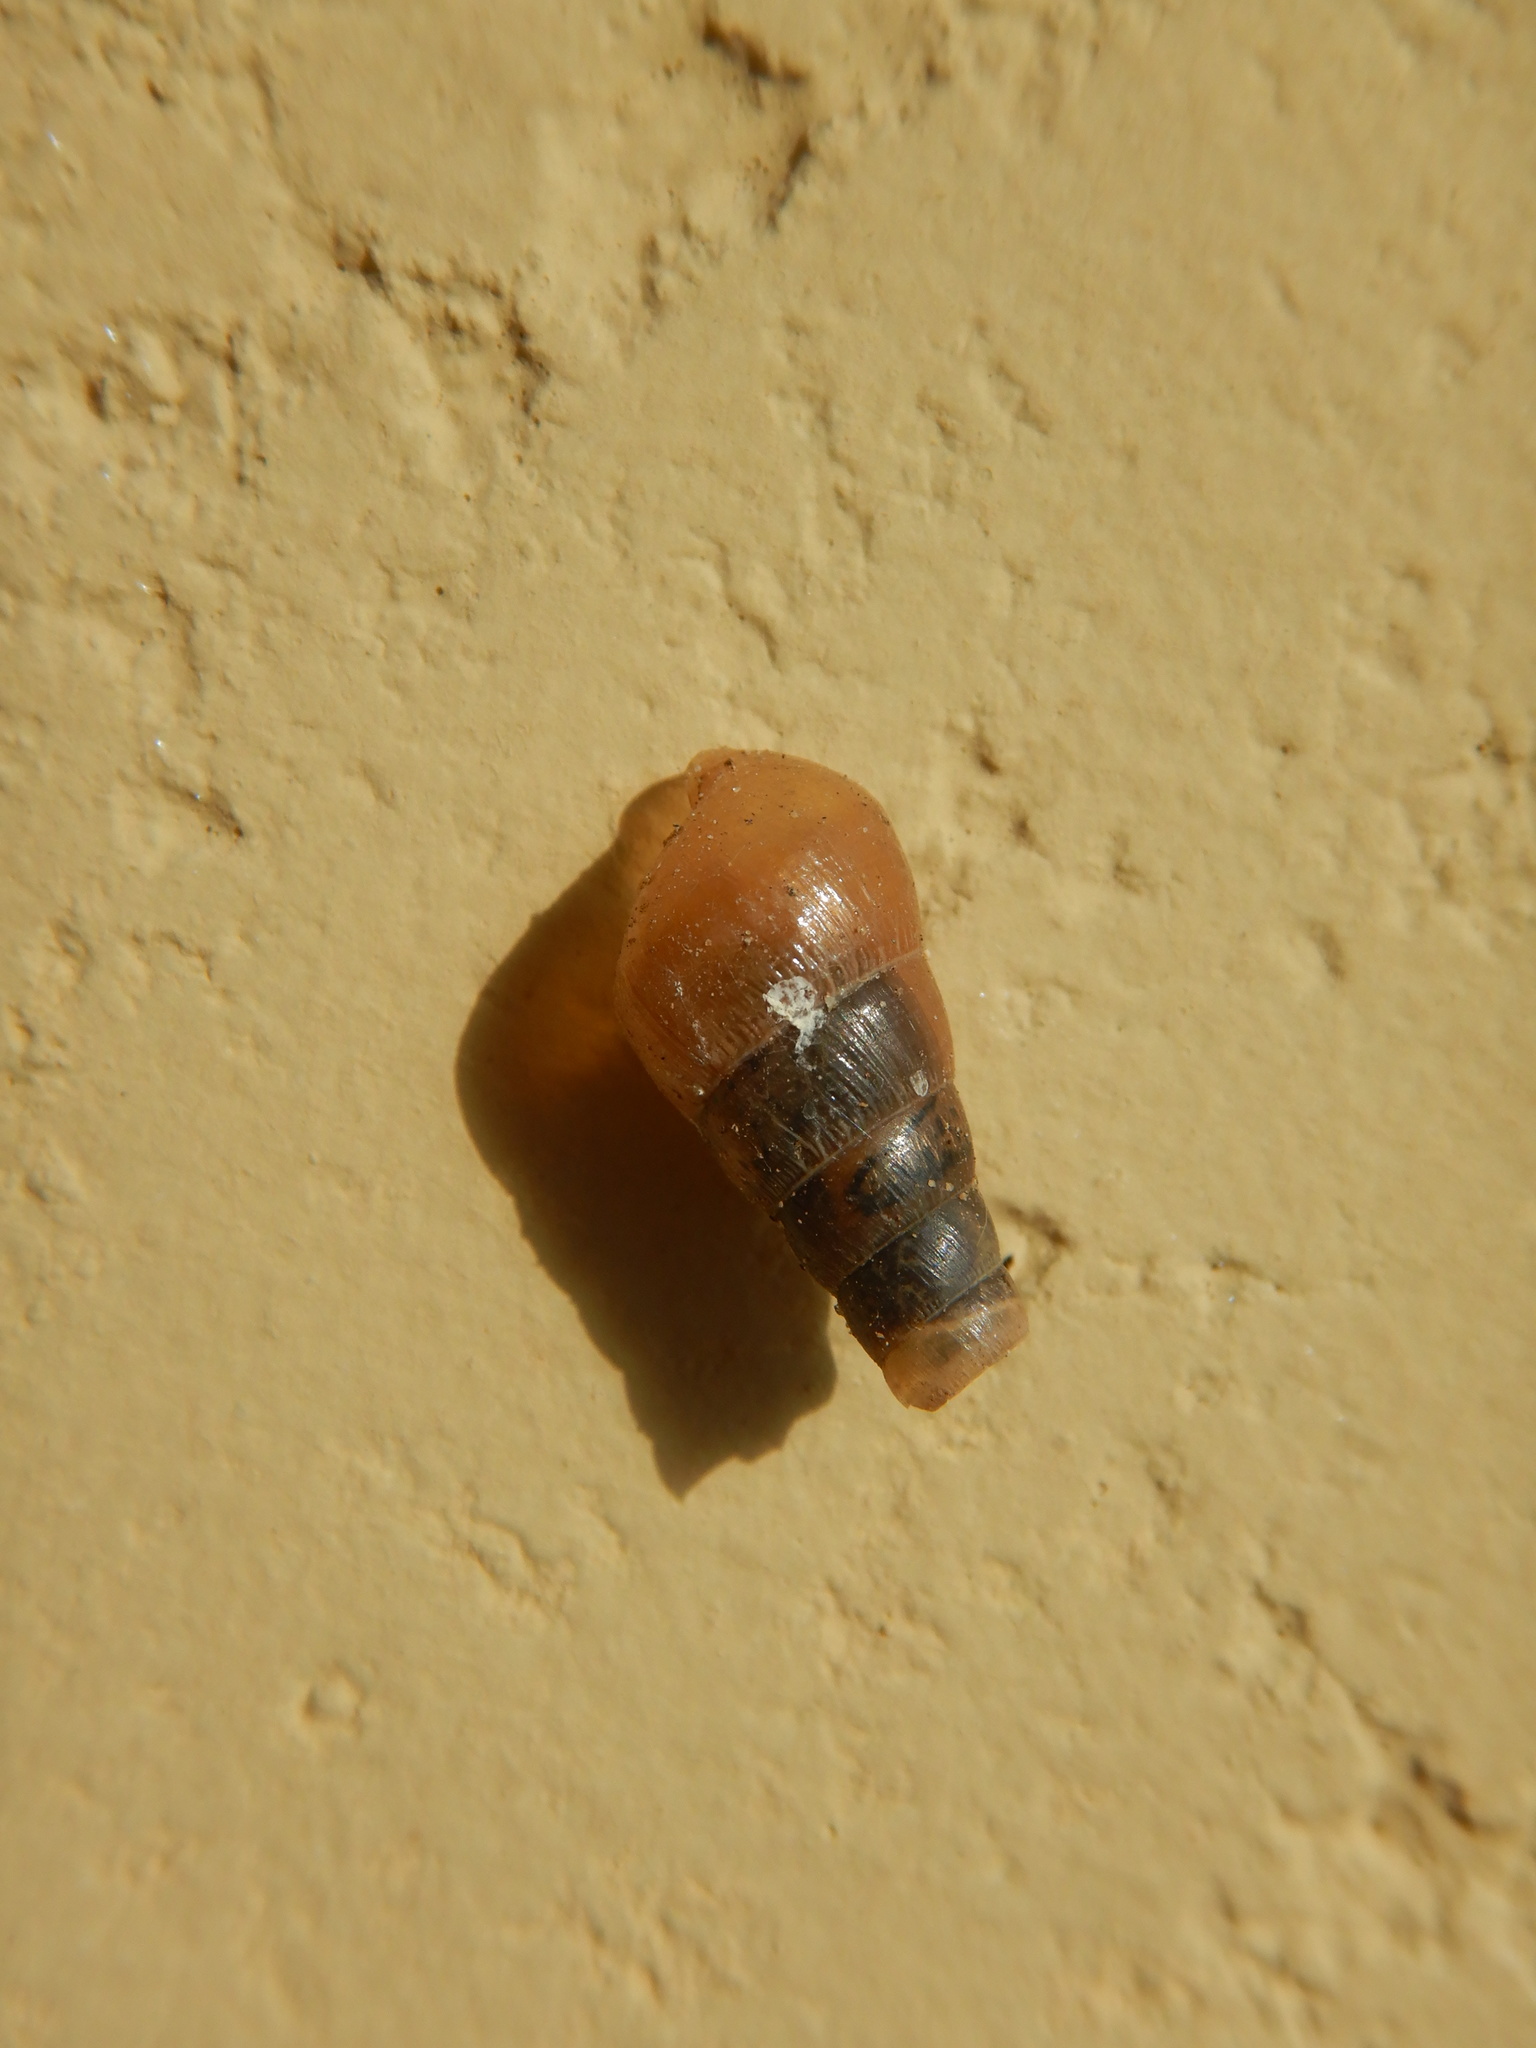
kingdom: Animalia
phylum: Mollusca
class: Gastropoda
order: Stylommatophora
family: Achatinidae
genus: Rumina
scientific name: Rumina decollata
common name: Decollate snail
